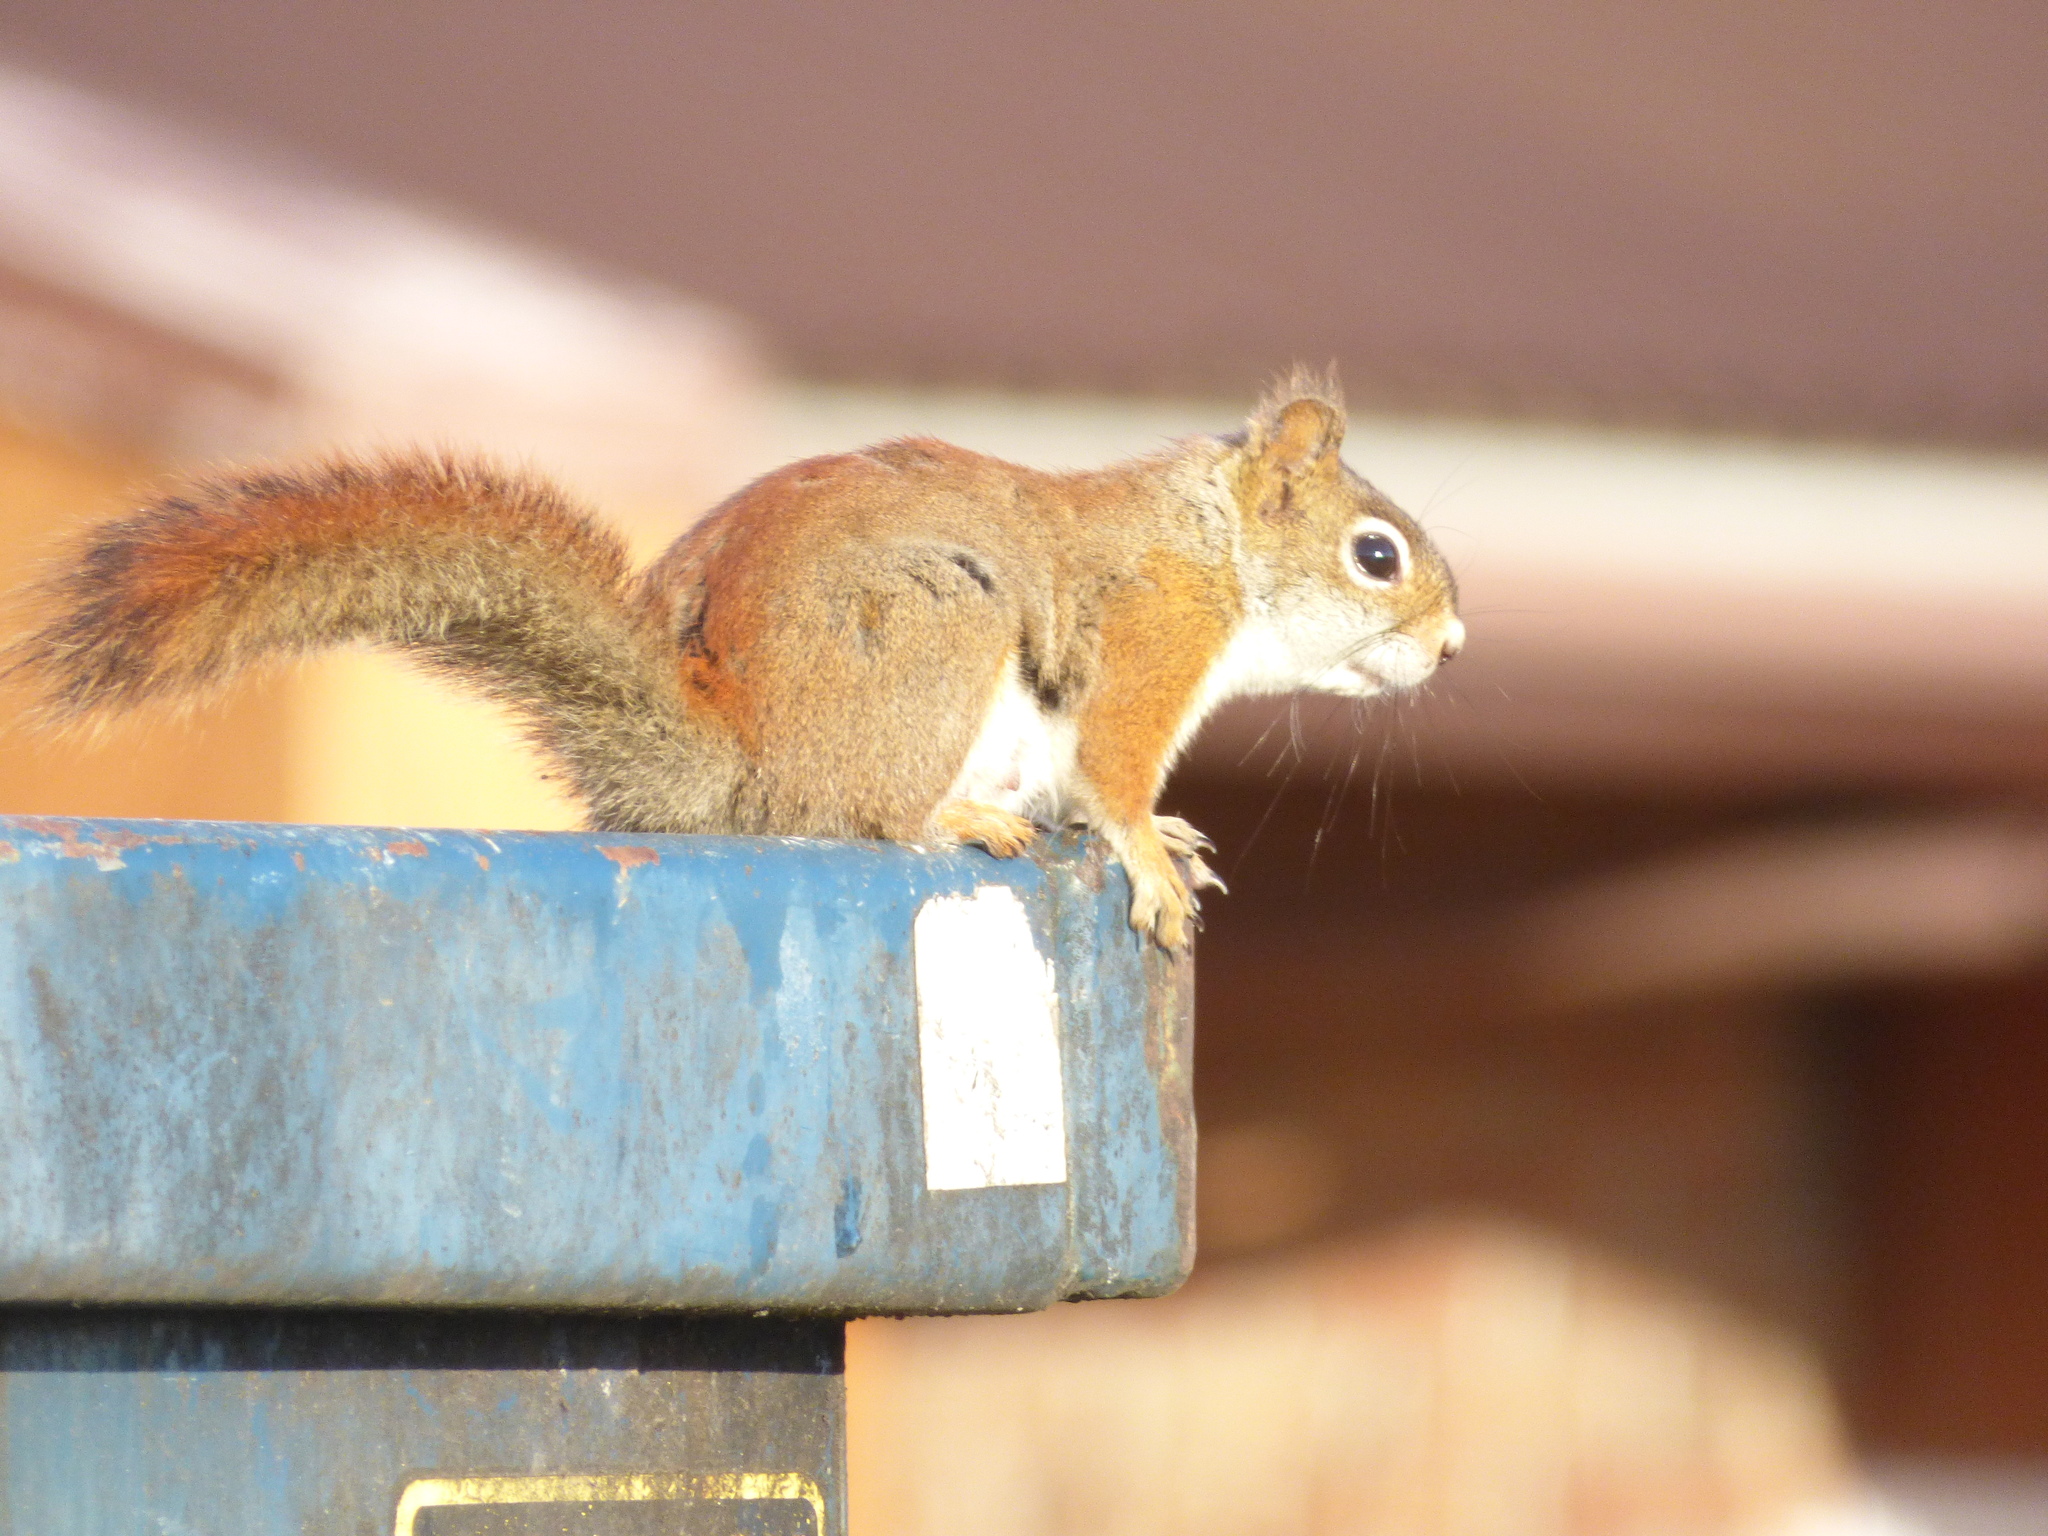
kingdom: Animalia
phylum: Chordata
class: Mammalia
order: Rodentia
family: Sciuridae
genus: Tamiasciurus
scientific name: Tamiasciurus hudsonicus
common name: Red squirrel
